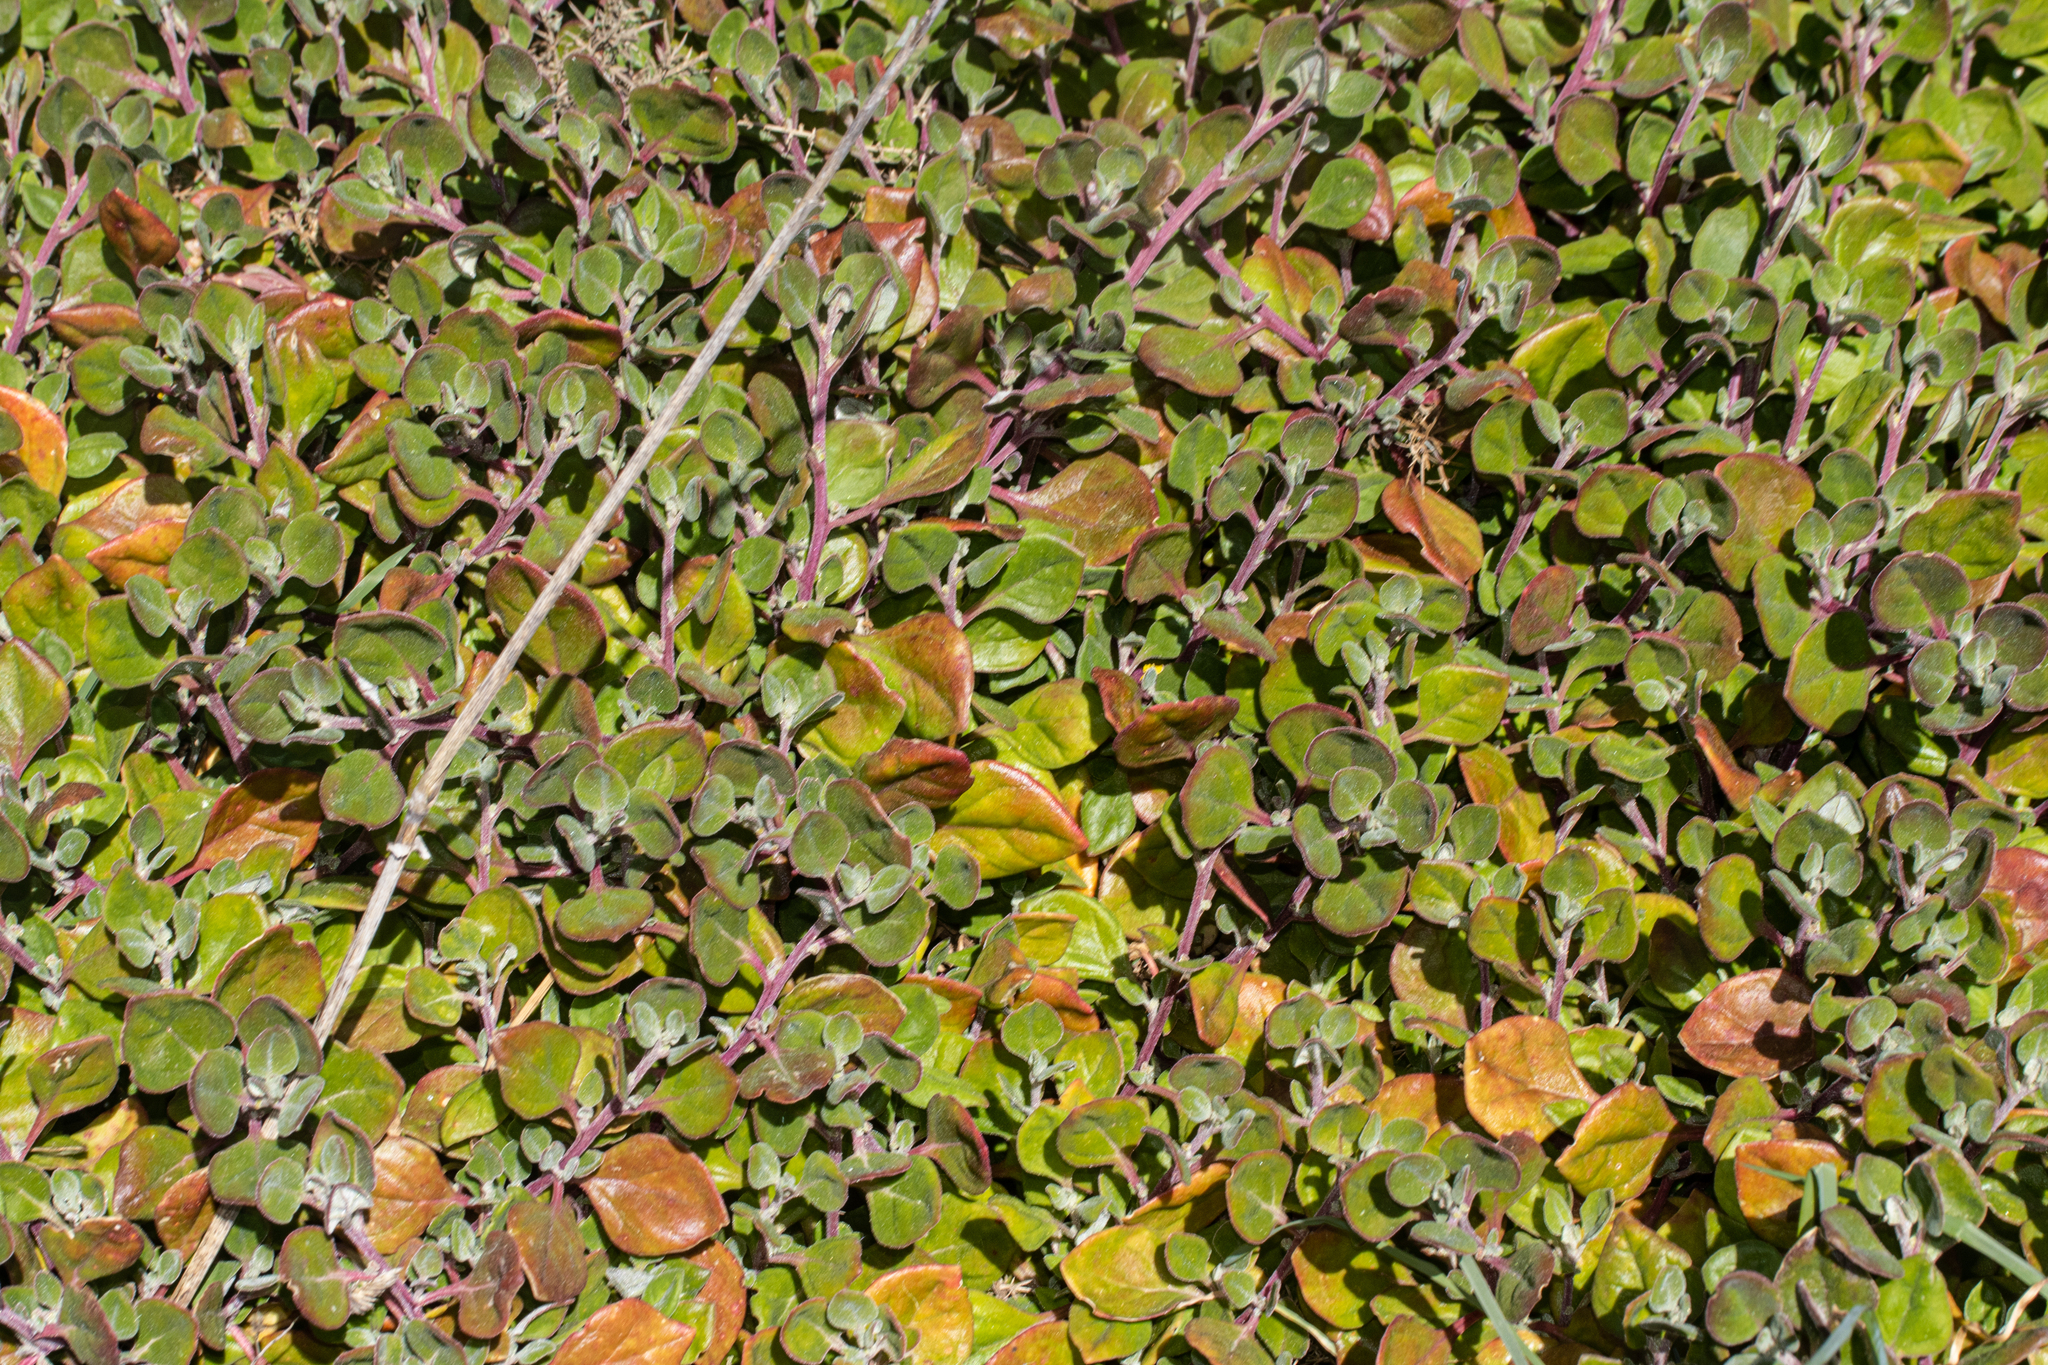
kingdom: Plantae
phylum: Tracheophyta
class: Magnoliopsida
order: Caryophyllales
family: Aizoaceae
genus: Tetragonia
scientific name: Tetragonia implexicoma
